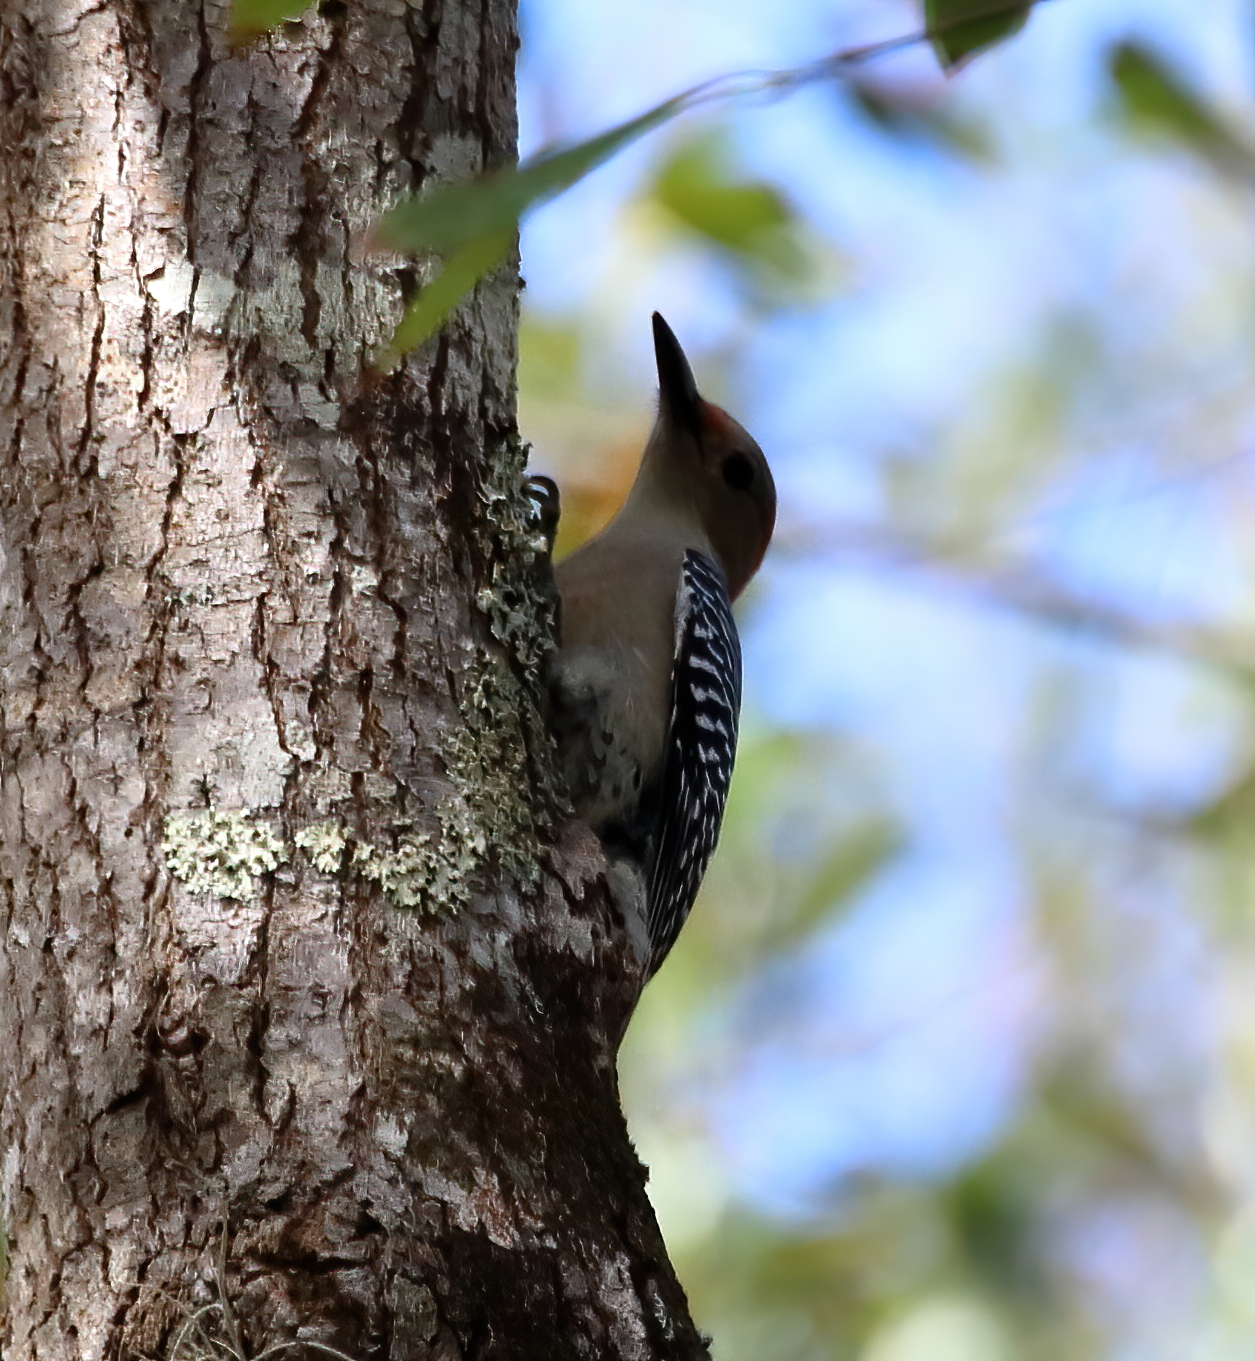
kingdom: Animalia
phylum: Chordata
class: Aves
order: Piciformes
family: Picidae
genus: Melanerpes
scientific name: Melanerpes carolinus
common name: Red-bellied woodpecker
